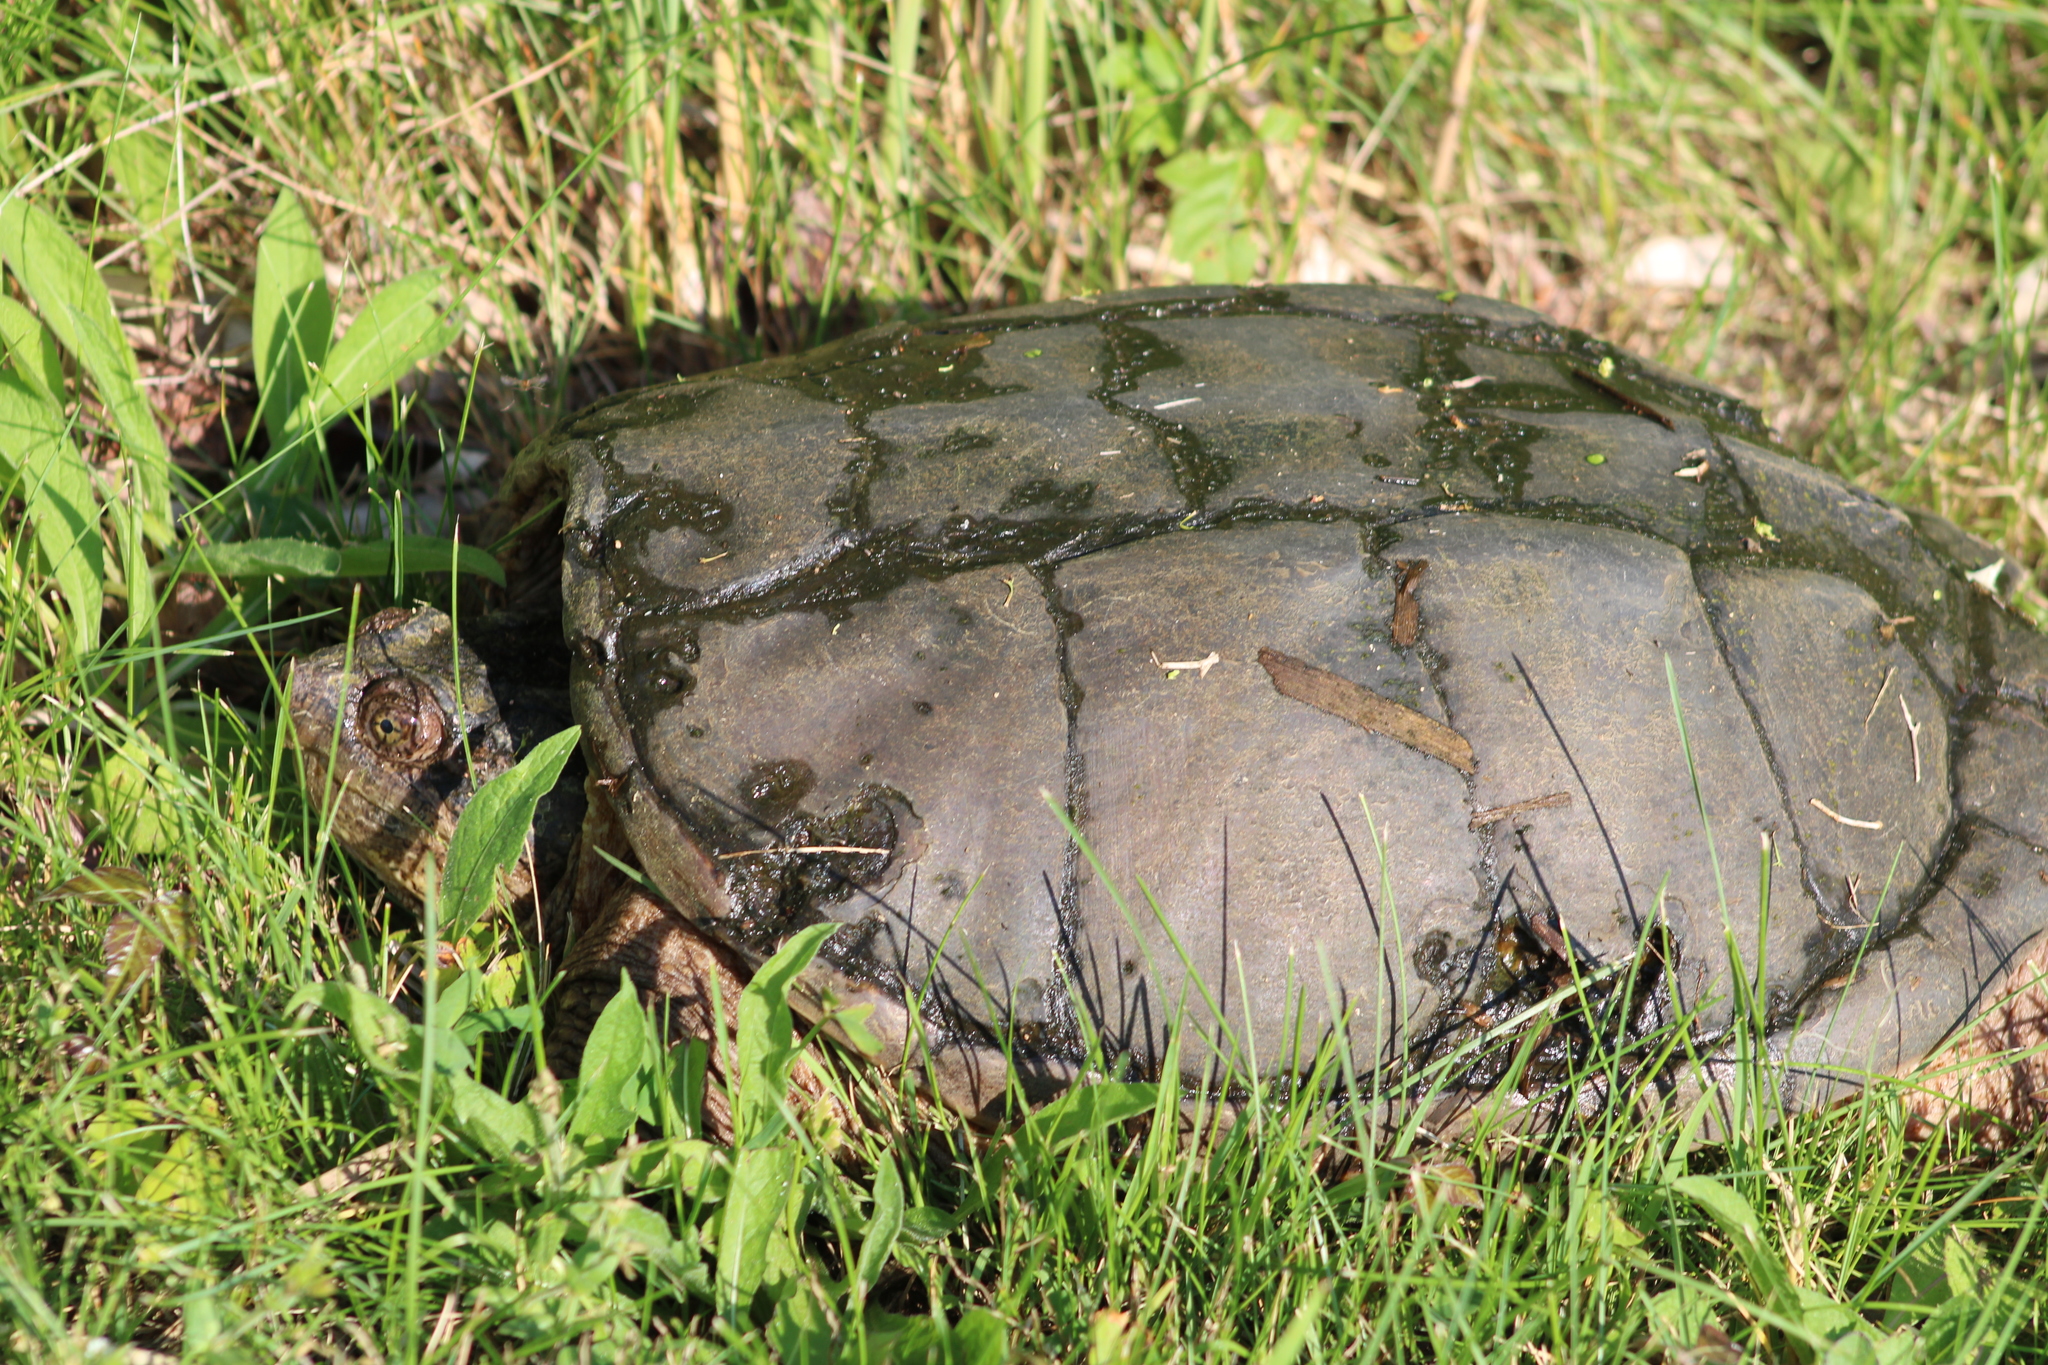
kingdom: Animalia
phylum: Chordata
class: Testudines
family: Chelydridae
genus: Chelydra
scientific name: Chelydra serpentina
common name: Common snapping turtle
